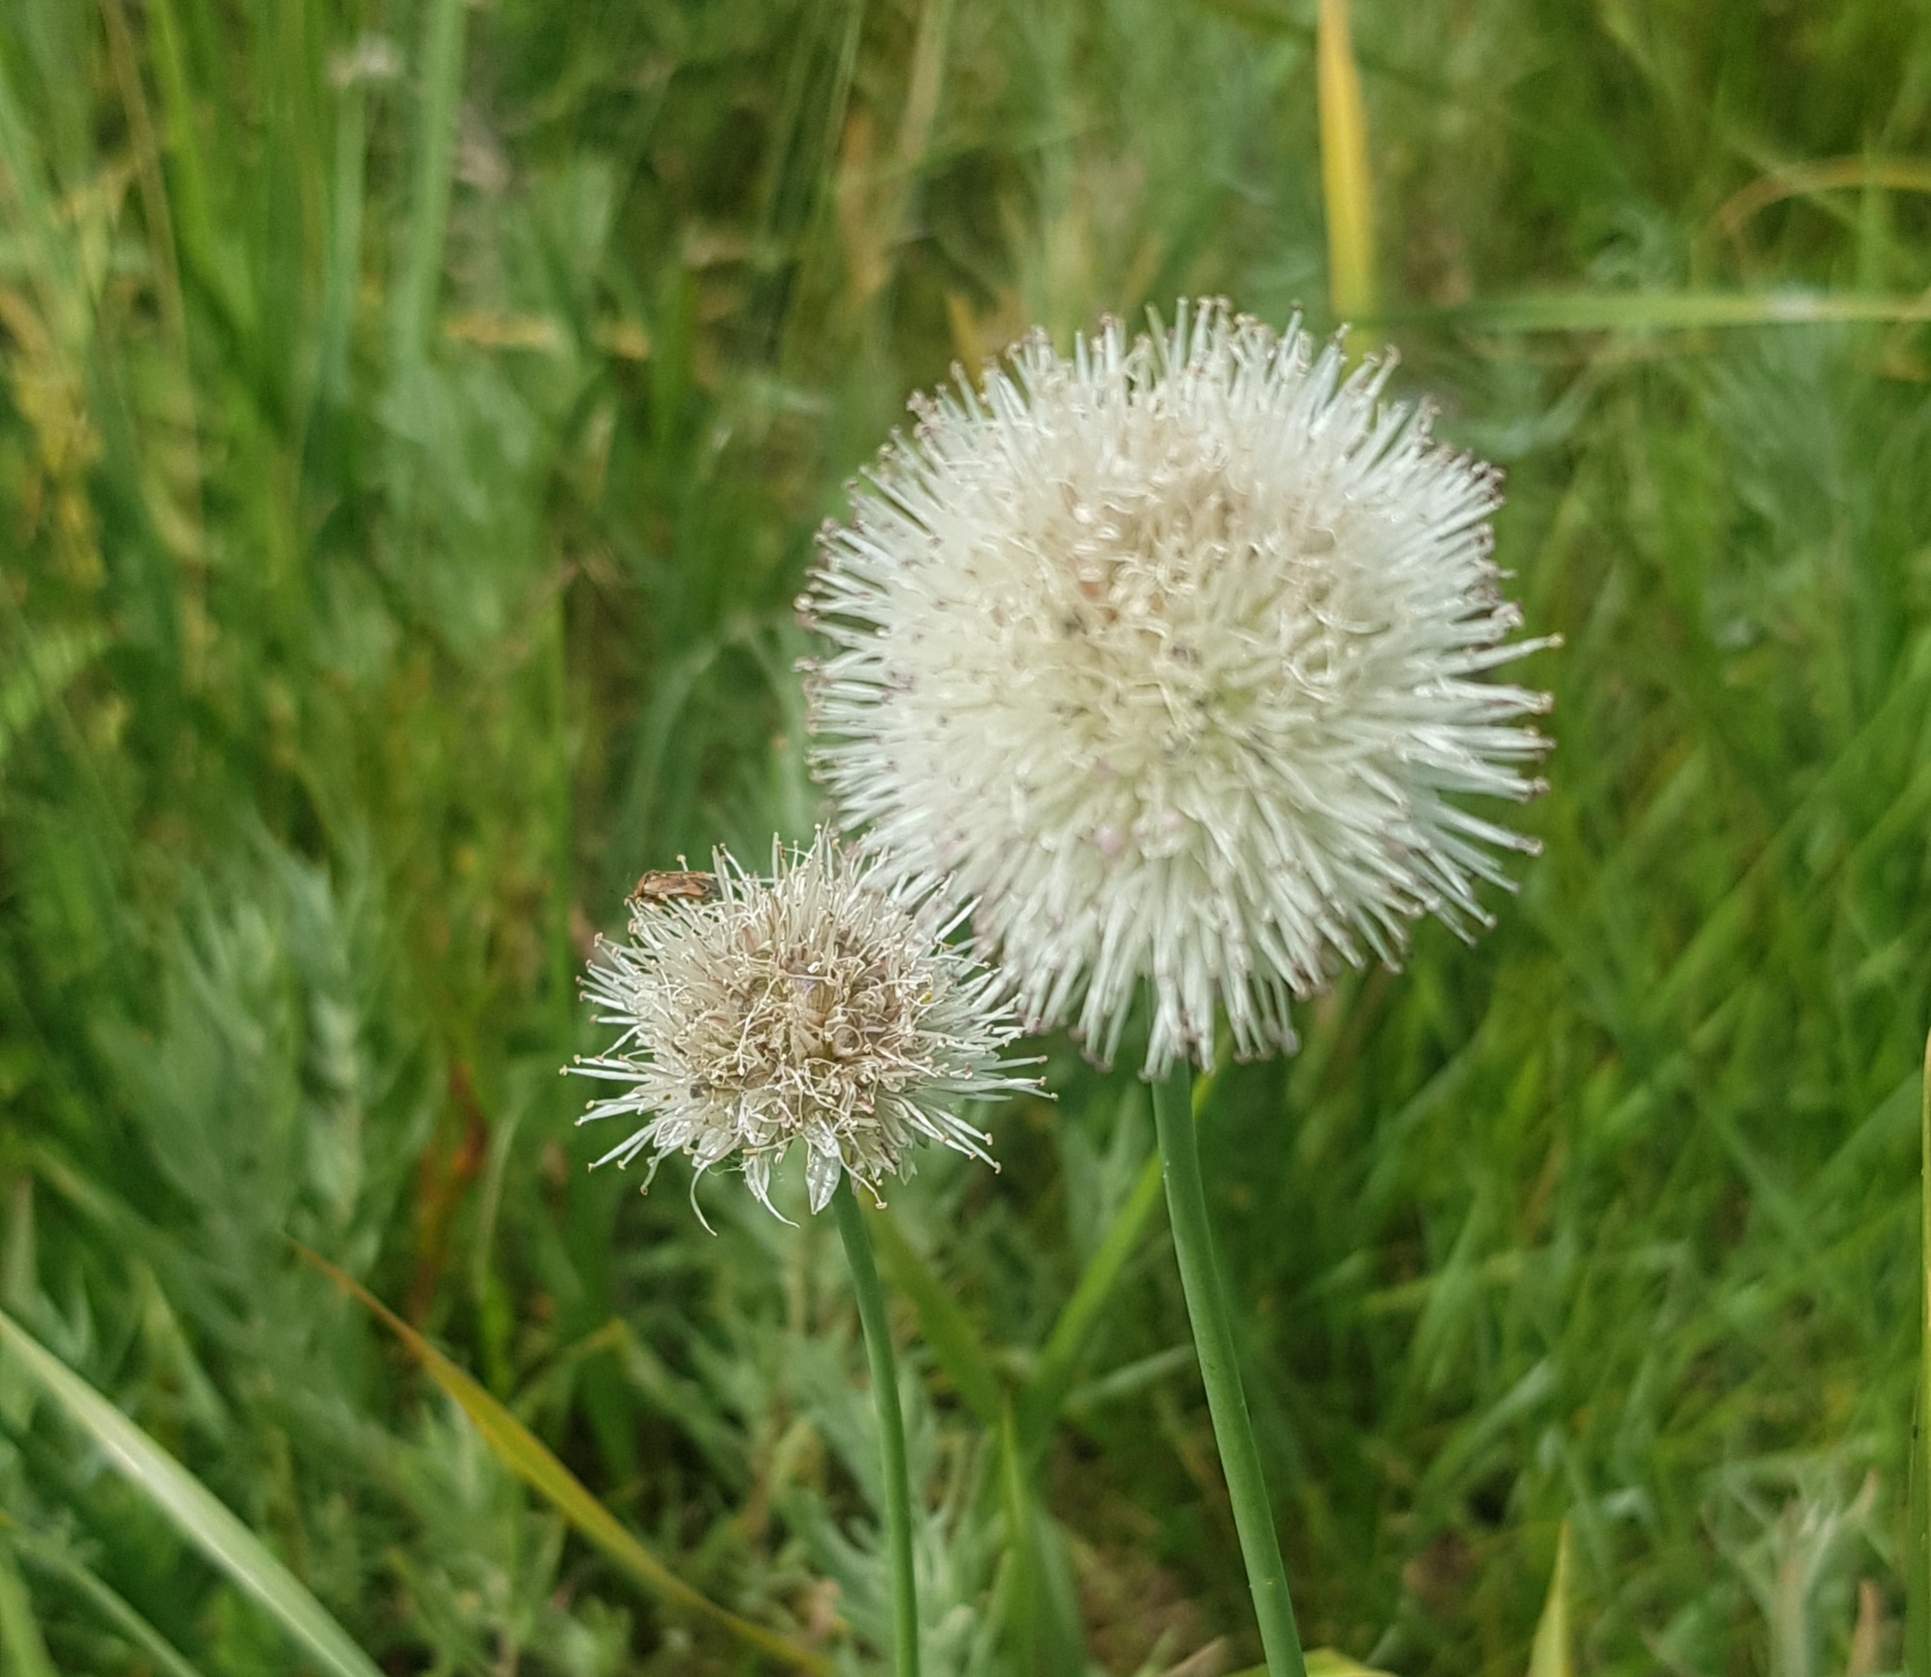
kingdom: Plantae
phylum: Tracheophyta
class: Liliopsida
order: Asparagales
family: Amaryllidaceae
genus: Allium
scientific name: Allium leucocephalum
